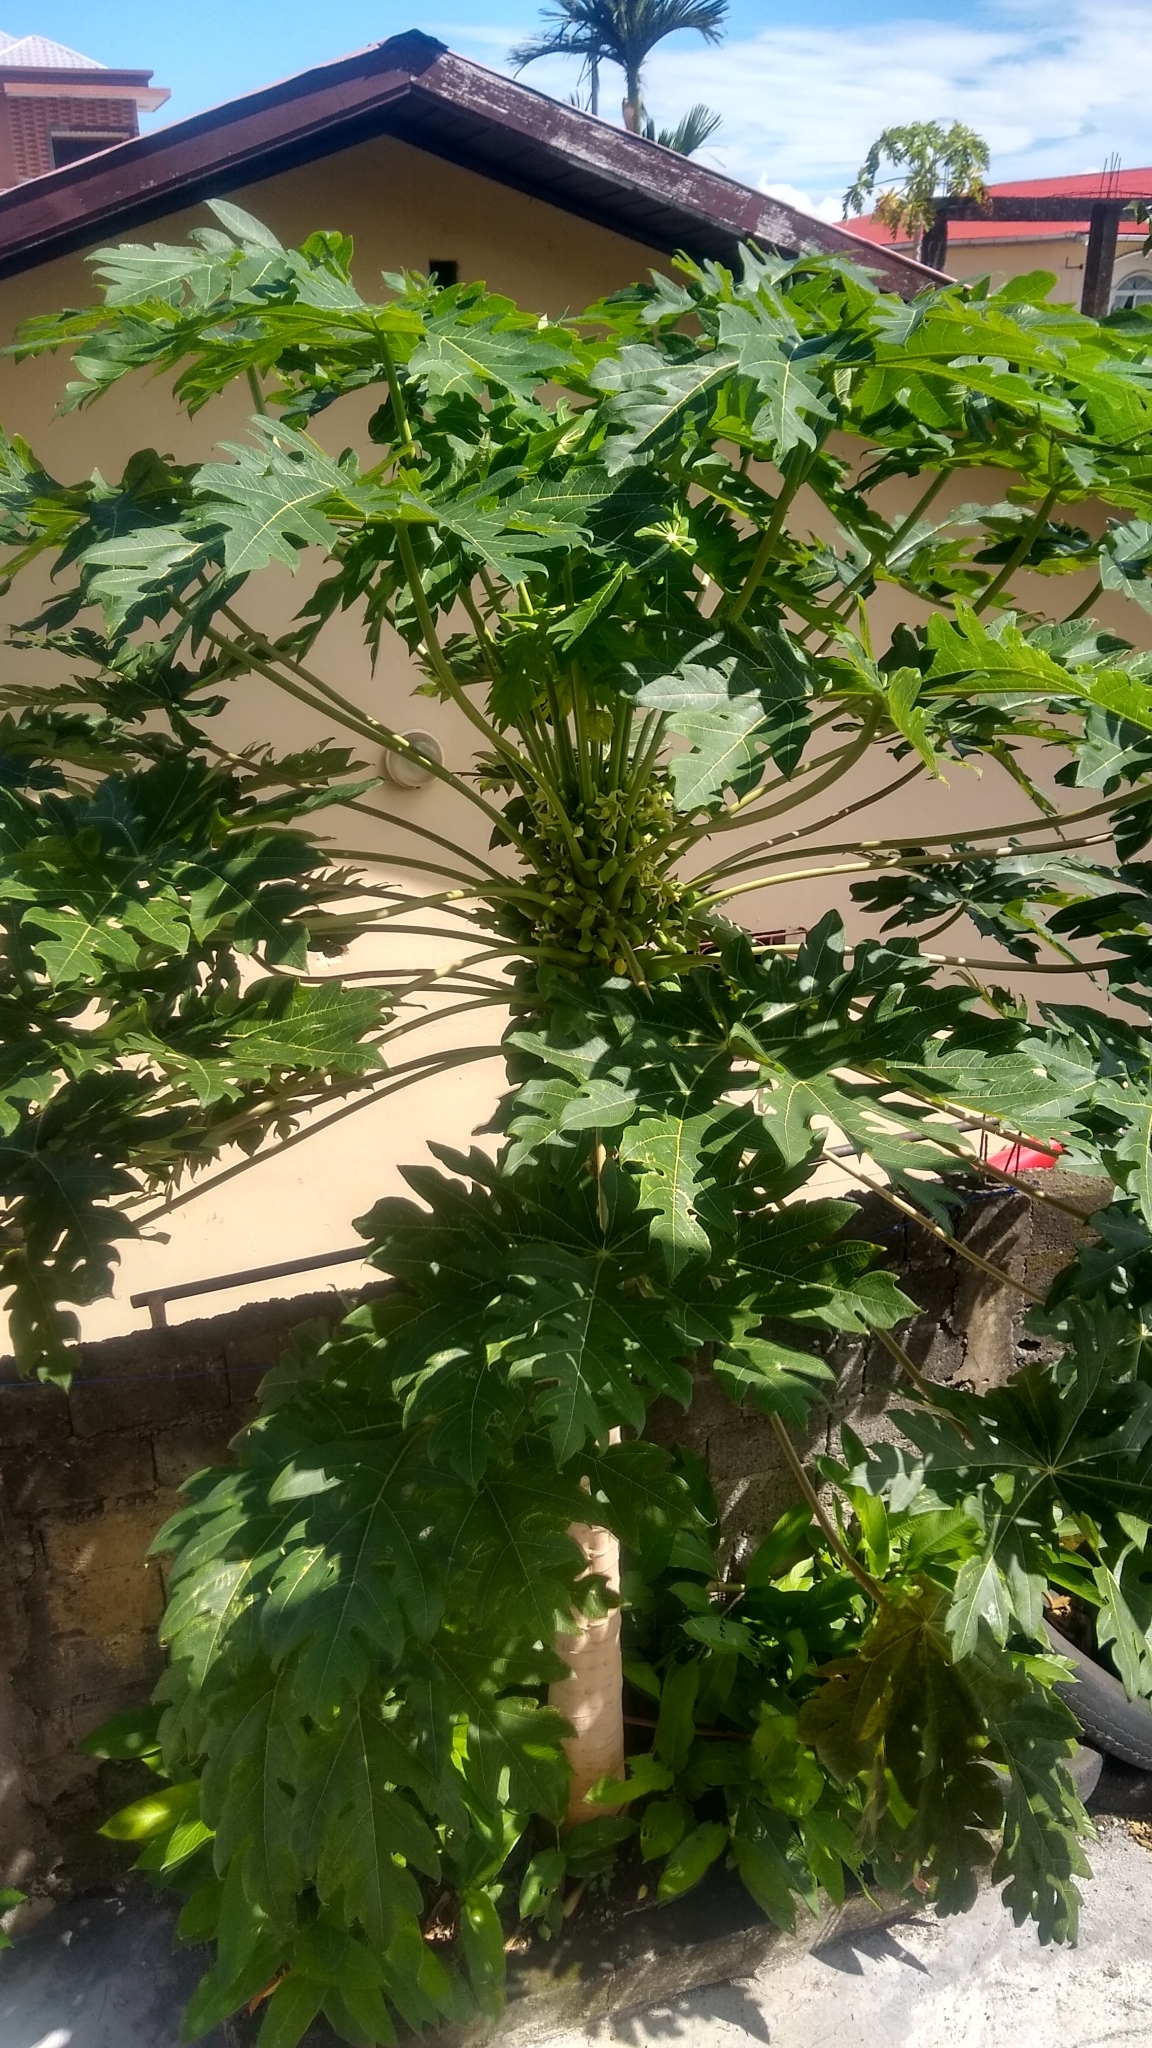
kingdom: Plantae
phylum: Tracheophyta
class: Magnoliopsida
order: Brassicales
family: Caricaceae
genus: Carica
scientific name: Carica papaya
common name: Papaya
